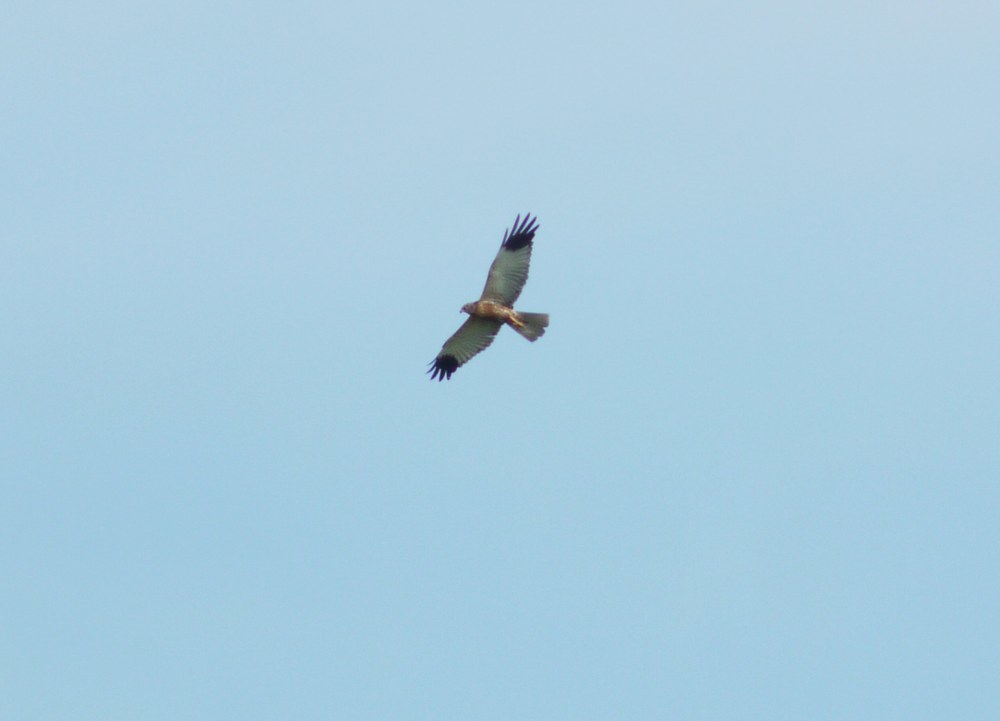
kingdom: Animalia
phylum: Chordata
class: Aves
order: Accipitriformes
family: Accipitridae
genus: Circus
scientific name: Circus aeruginosus
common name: Western marsh harrier
